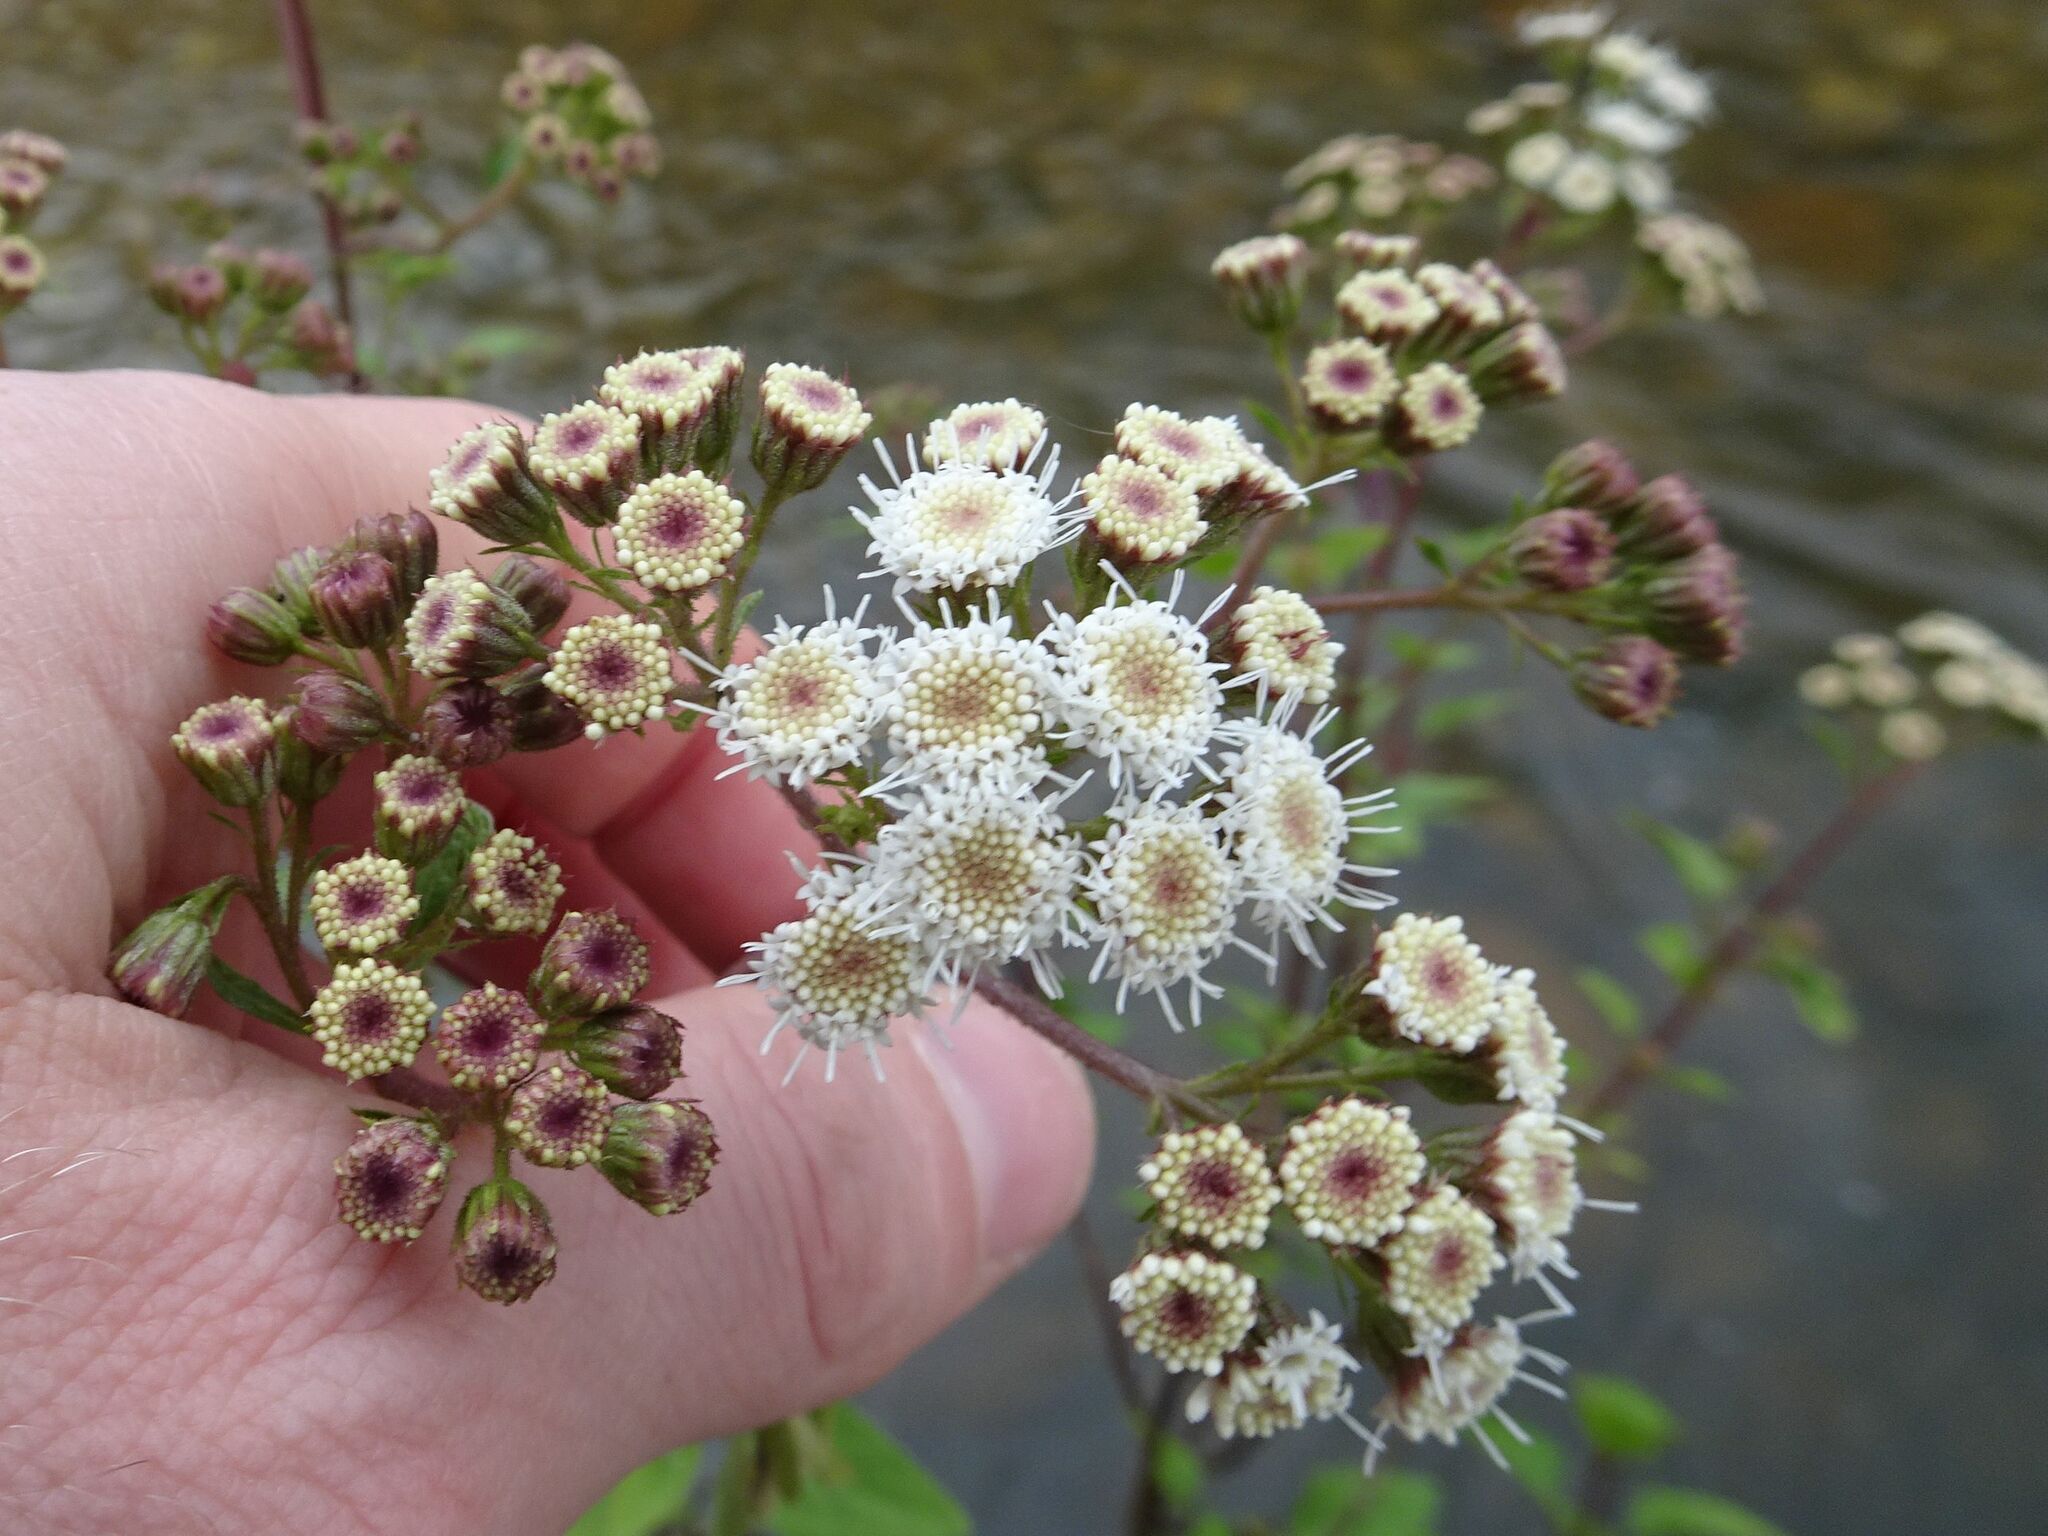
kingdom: Plantae
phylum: Tracheophyta
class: Magnoliopsida
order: Asterales
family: Asteraceae
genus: Ageratina
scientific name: Ageratina adenophora
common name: Sticky snakeroot
